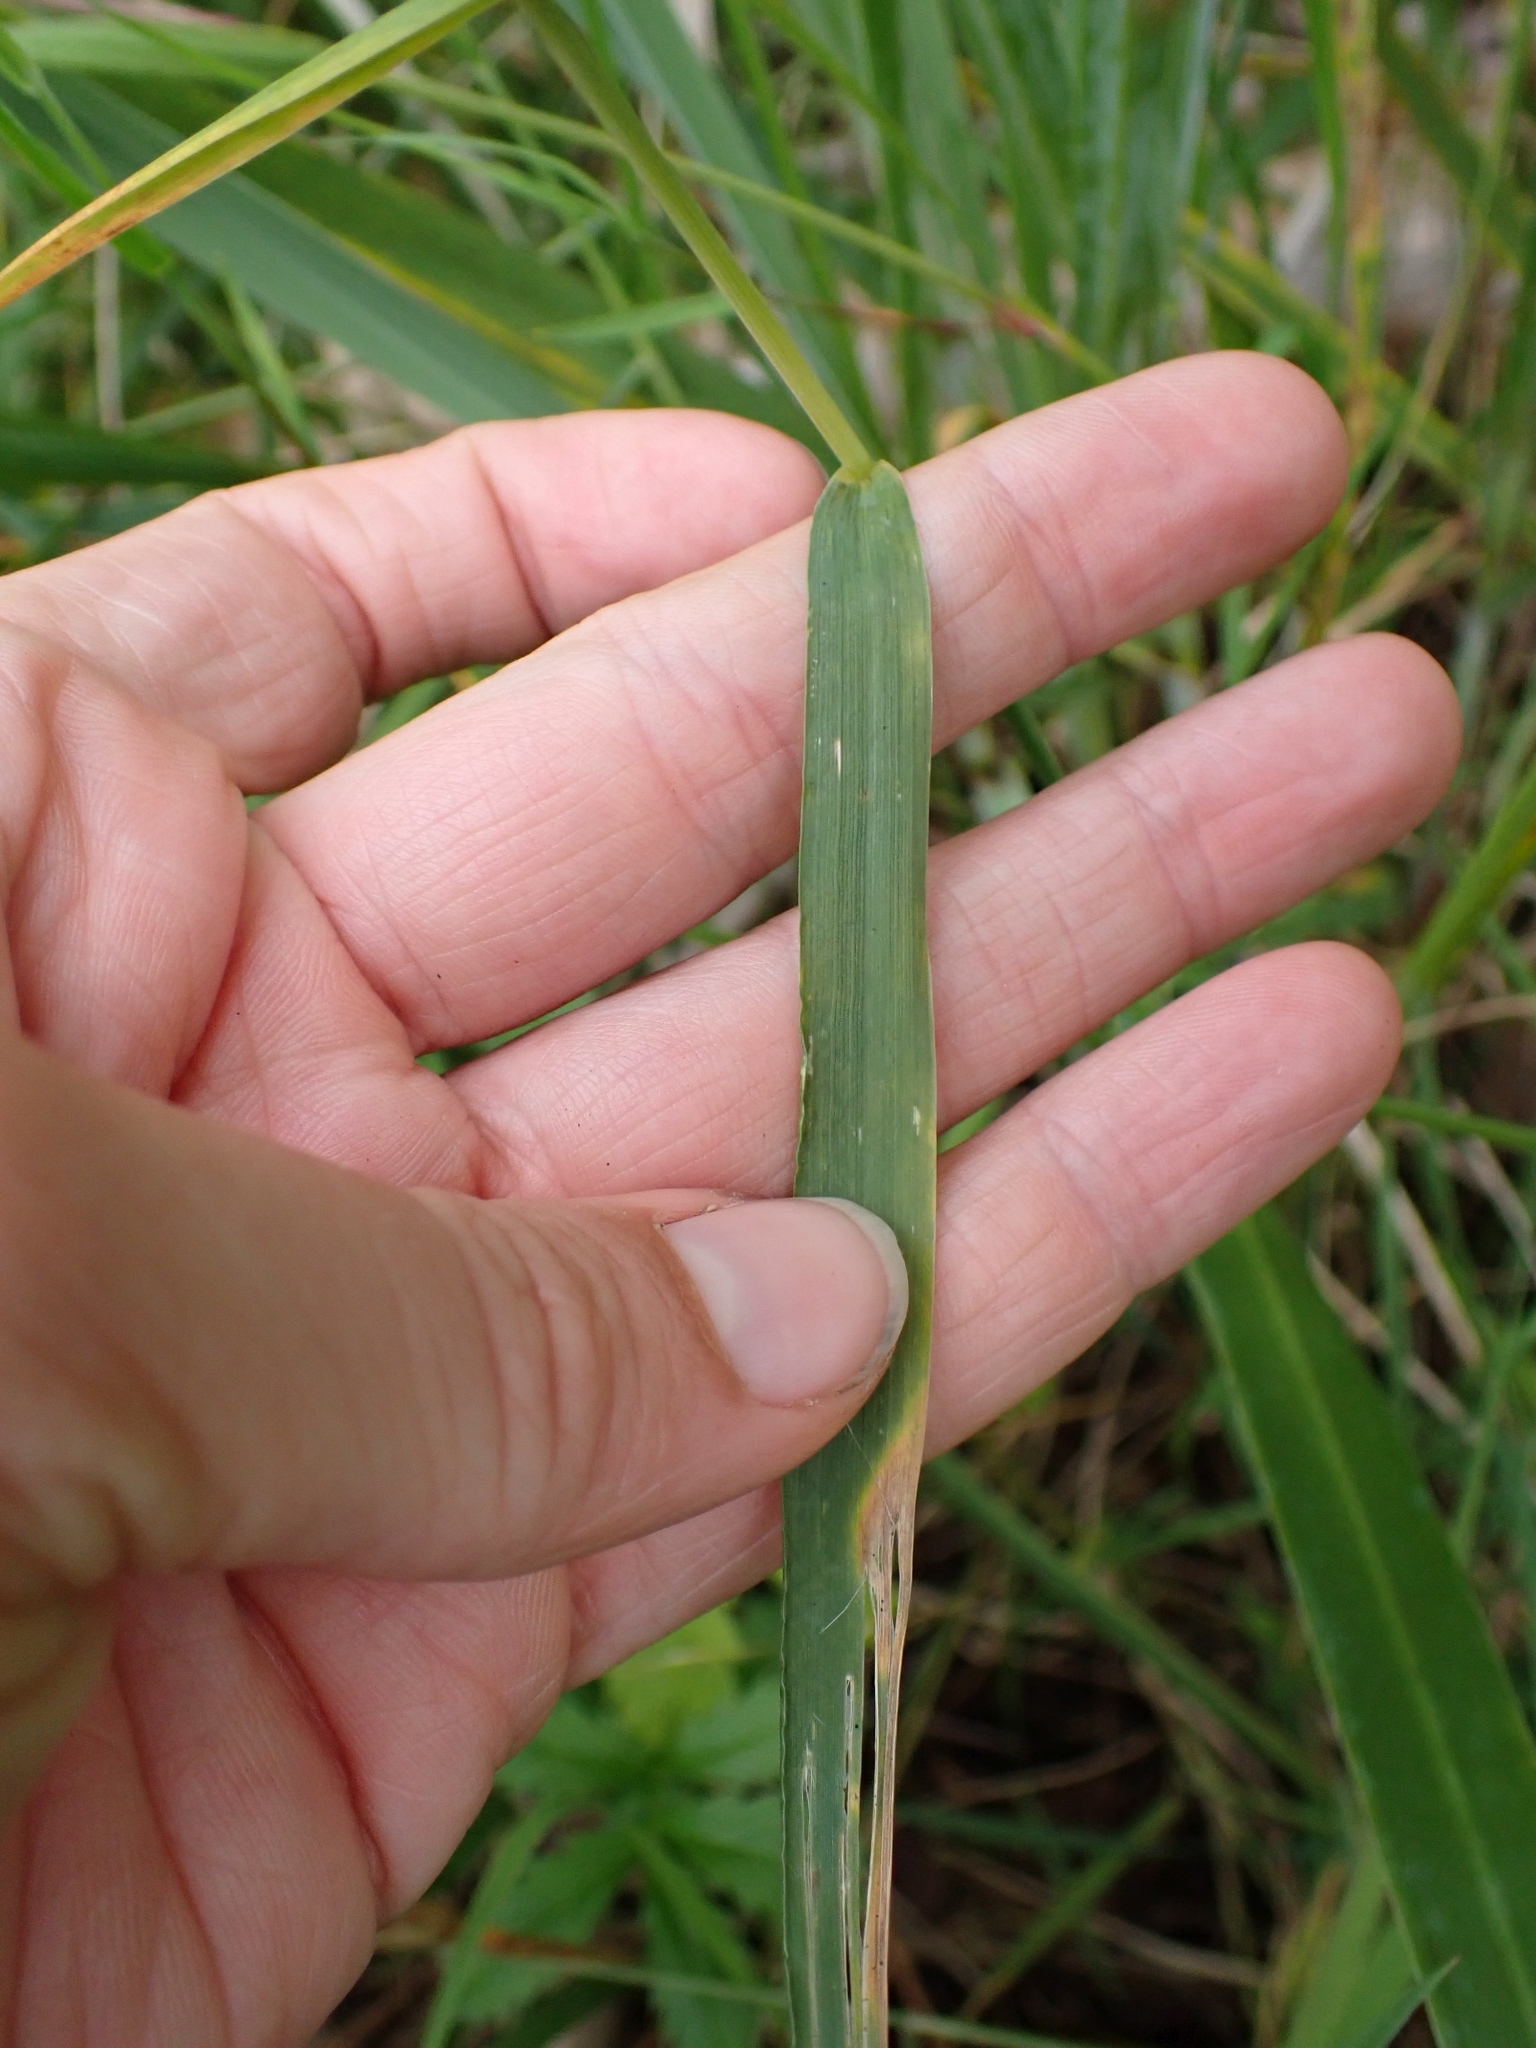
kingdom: Plantae
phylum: Tracheophyta
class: Liliopsida
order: Poales
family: Poaceae
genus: Hordeum
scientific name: Hordeum brachyantherum
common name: Meadow barley
